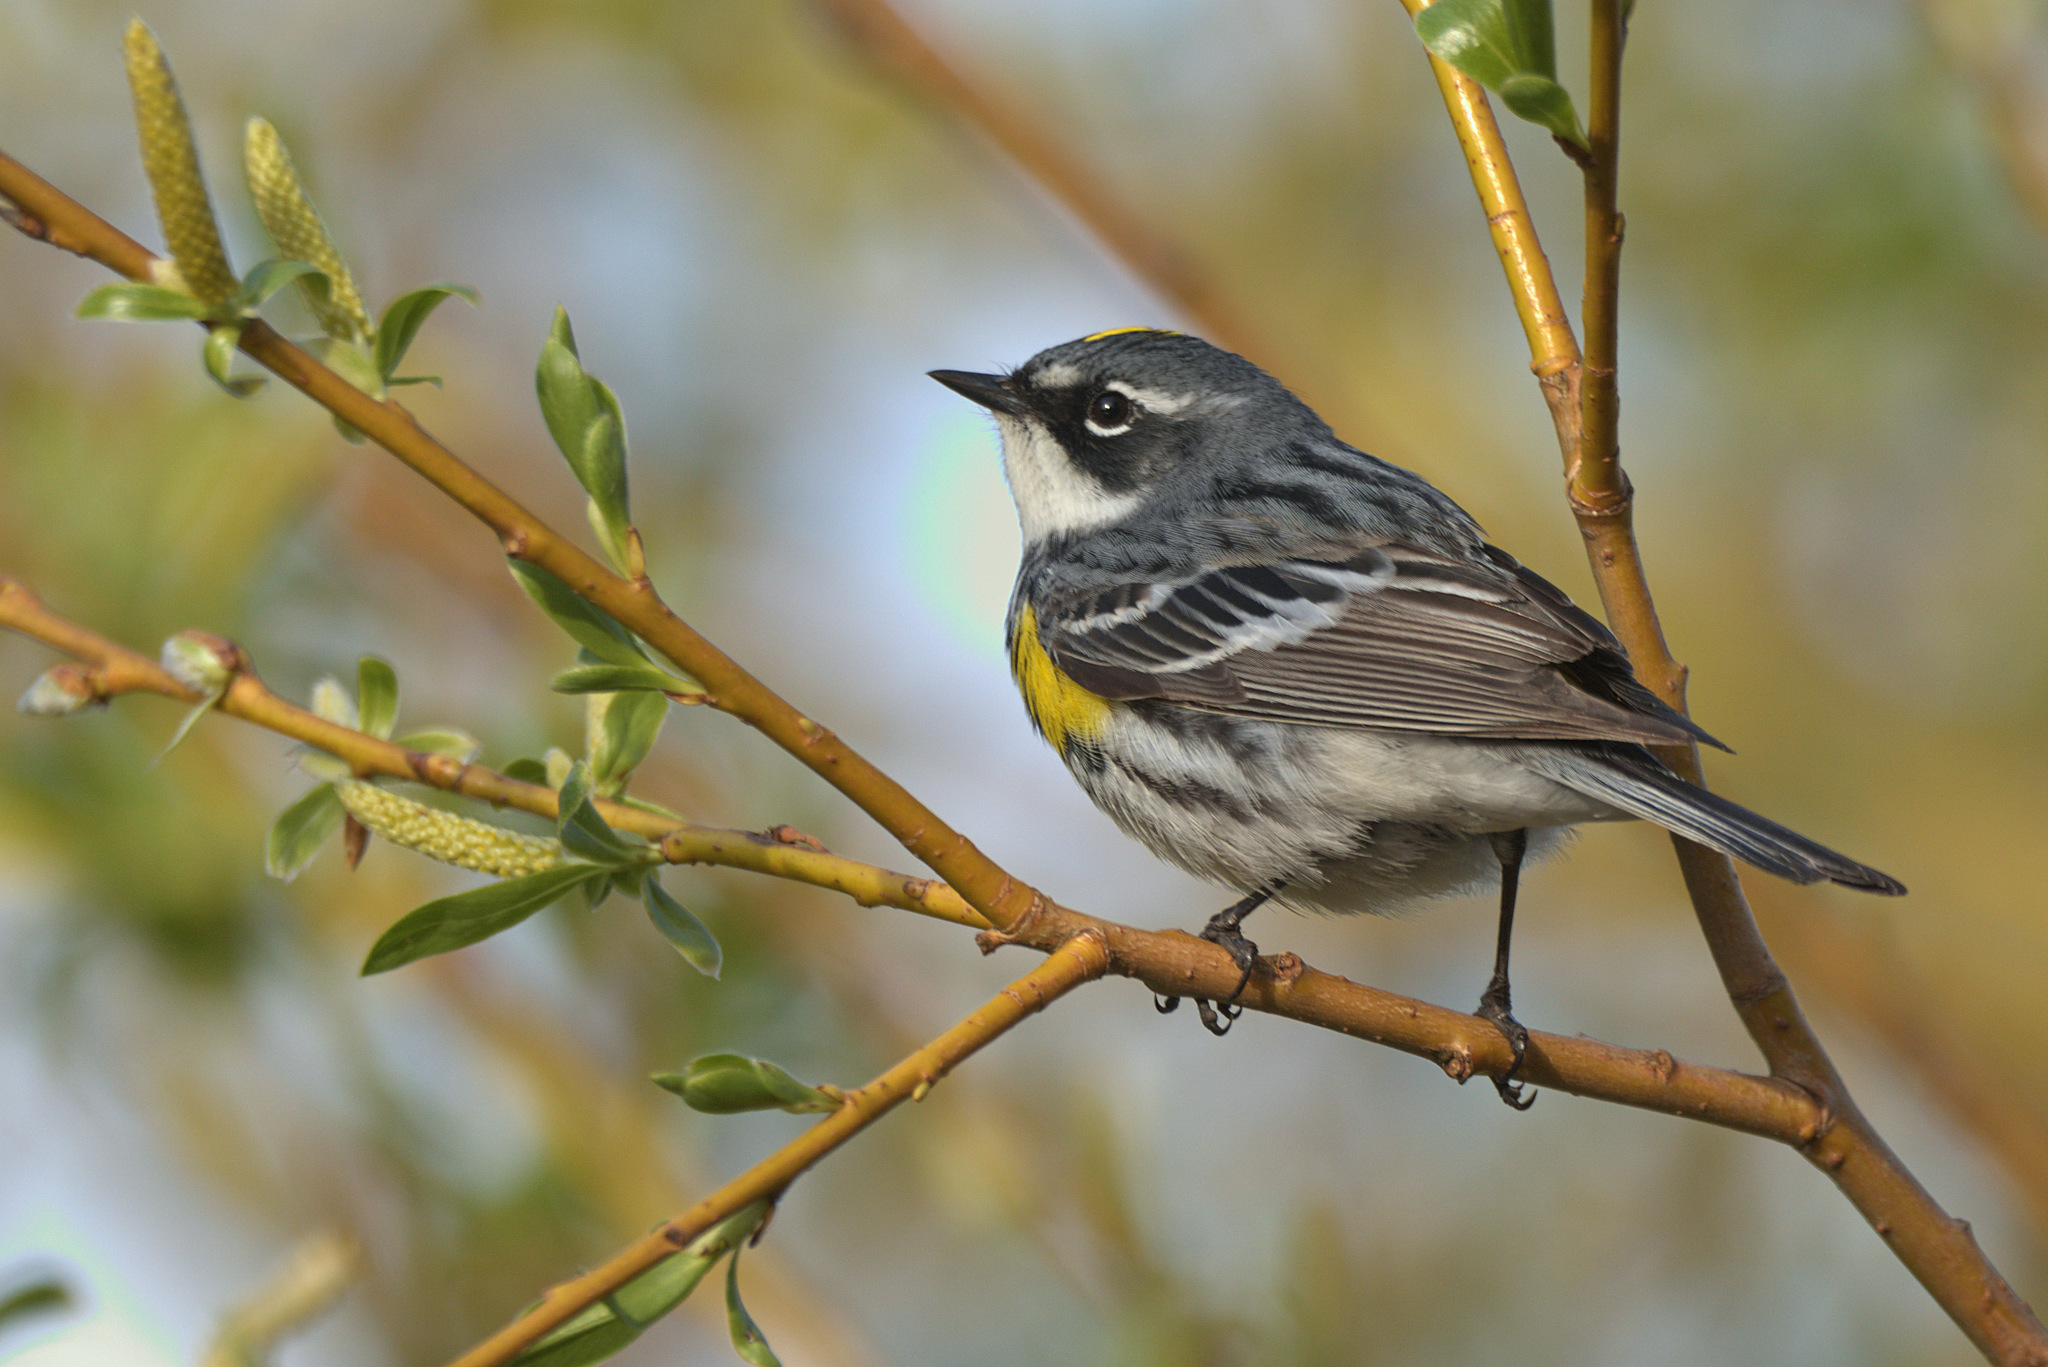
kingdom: Animalia
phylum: Chordata
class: Aves
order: Passeriformes
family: Parulidae
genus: Setophaga
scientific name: Setophaga coronata
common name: Myrtle warbler
